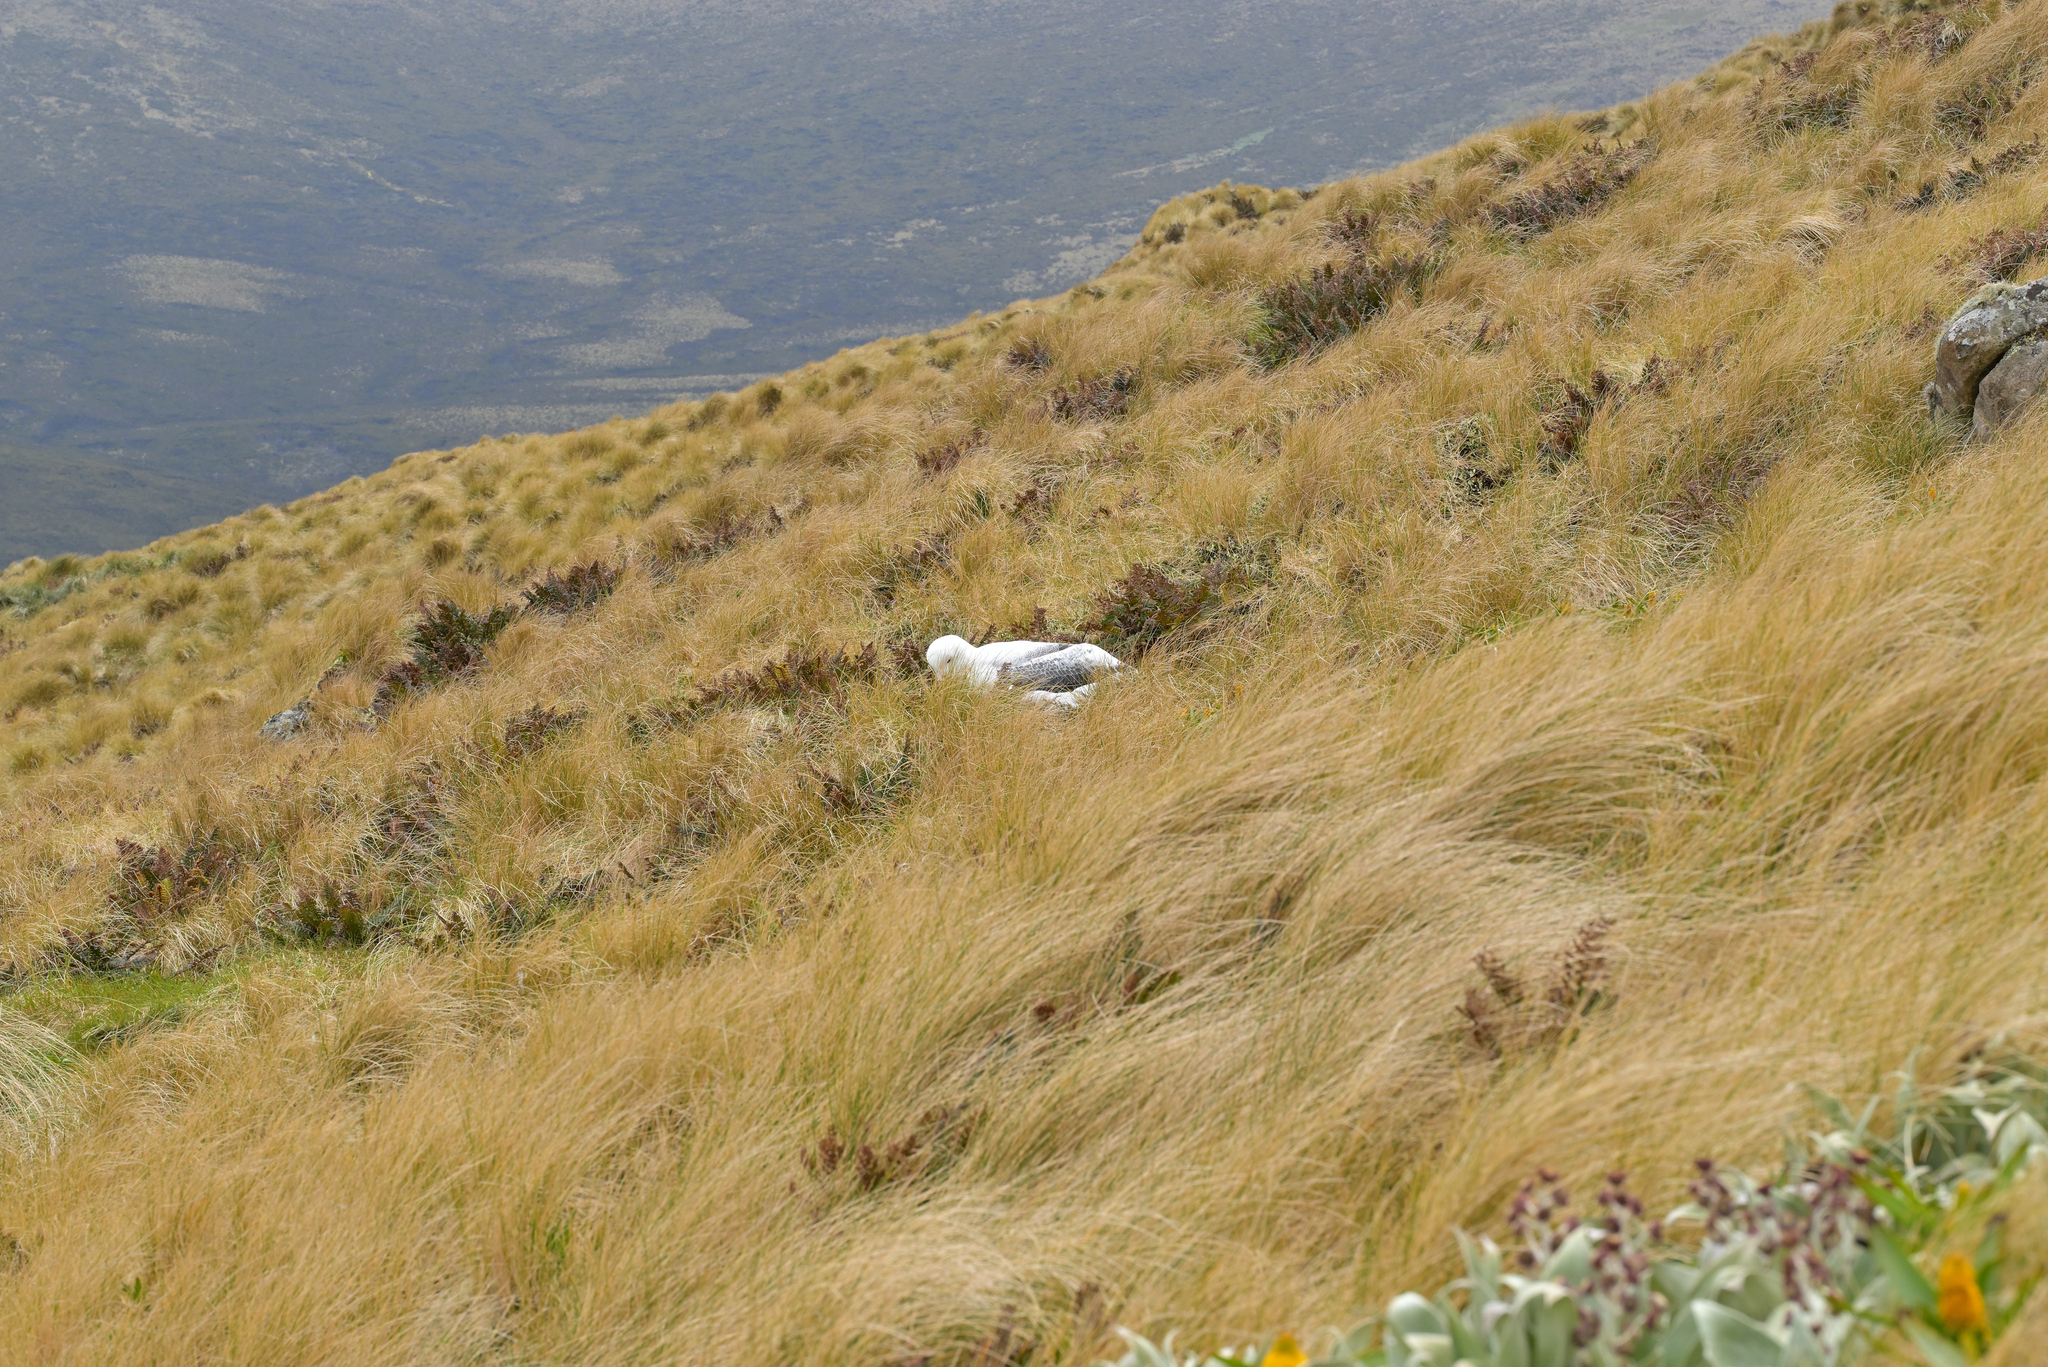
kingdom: Animalia
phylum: Chordata
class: Aves
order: Procellariiformes
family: Diomedeidae
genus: Diomedea
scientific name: Diomedea epomophora
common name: Southern royal albatross
